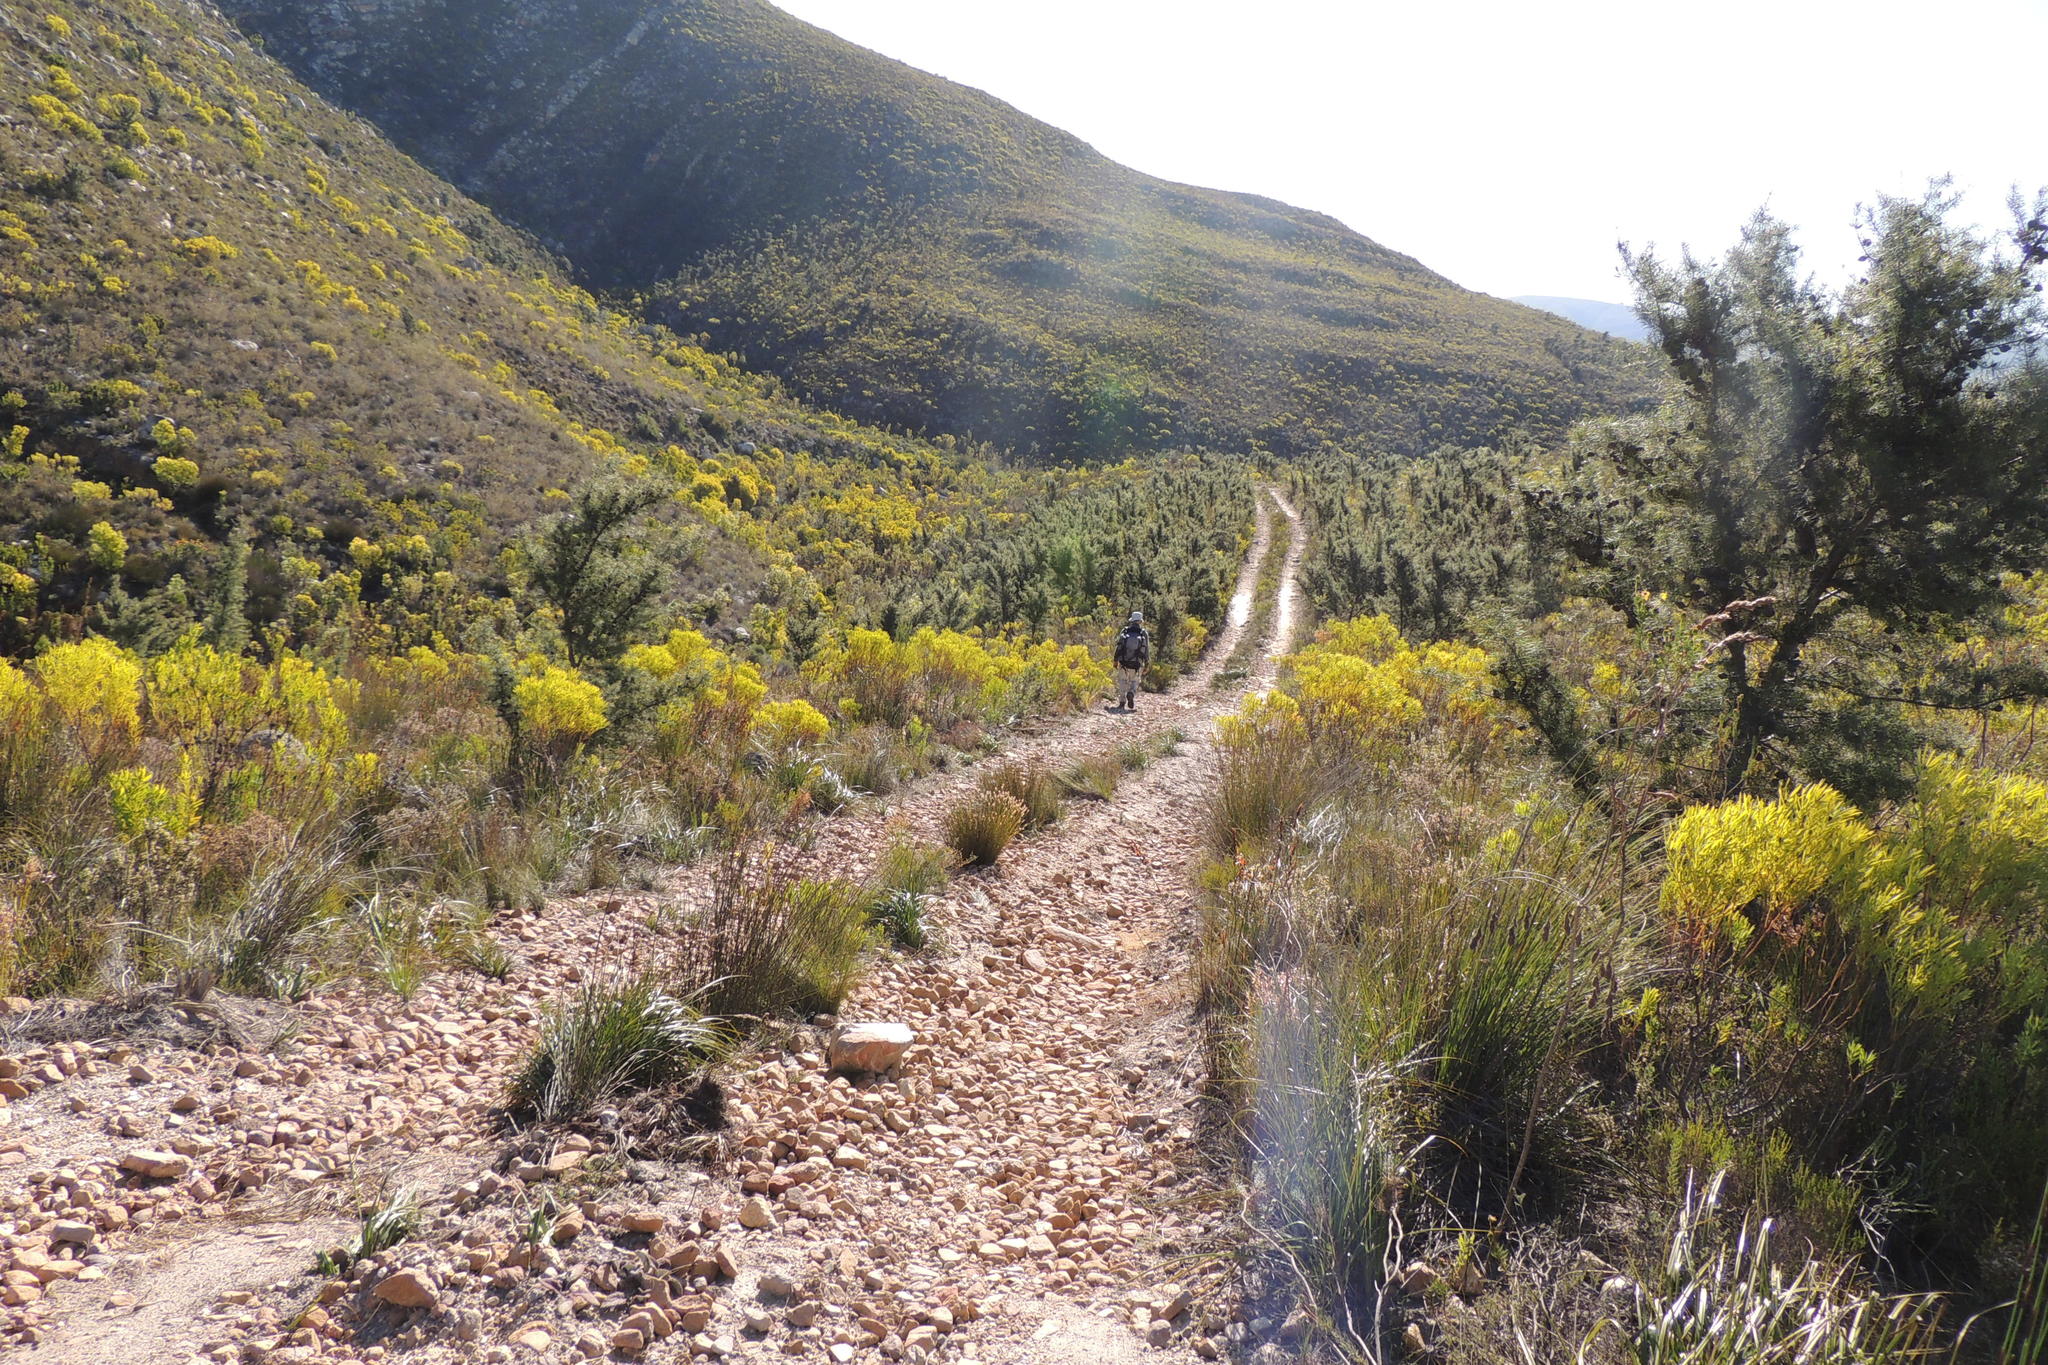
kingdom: Plantae
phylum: Tracheophyta
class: Magnoliopsida
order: Proteales
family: Proteaceae
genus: Hakea
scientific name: Hakea sericea
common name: Needle bush
